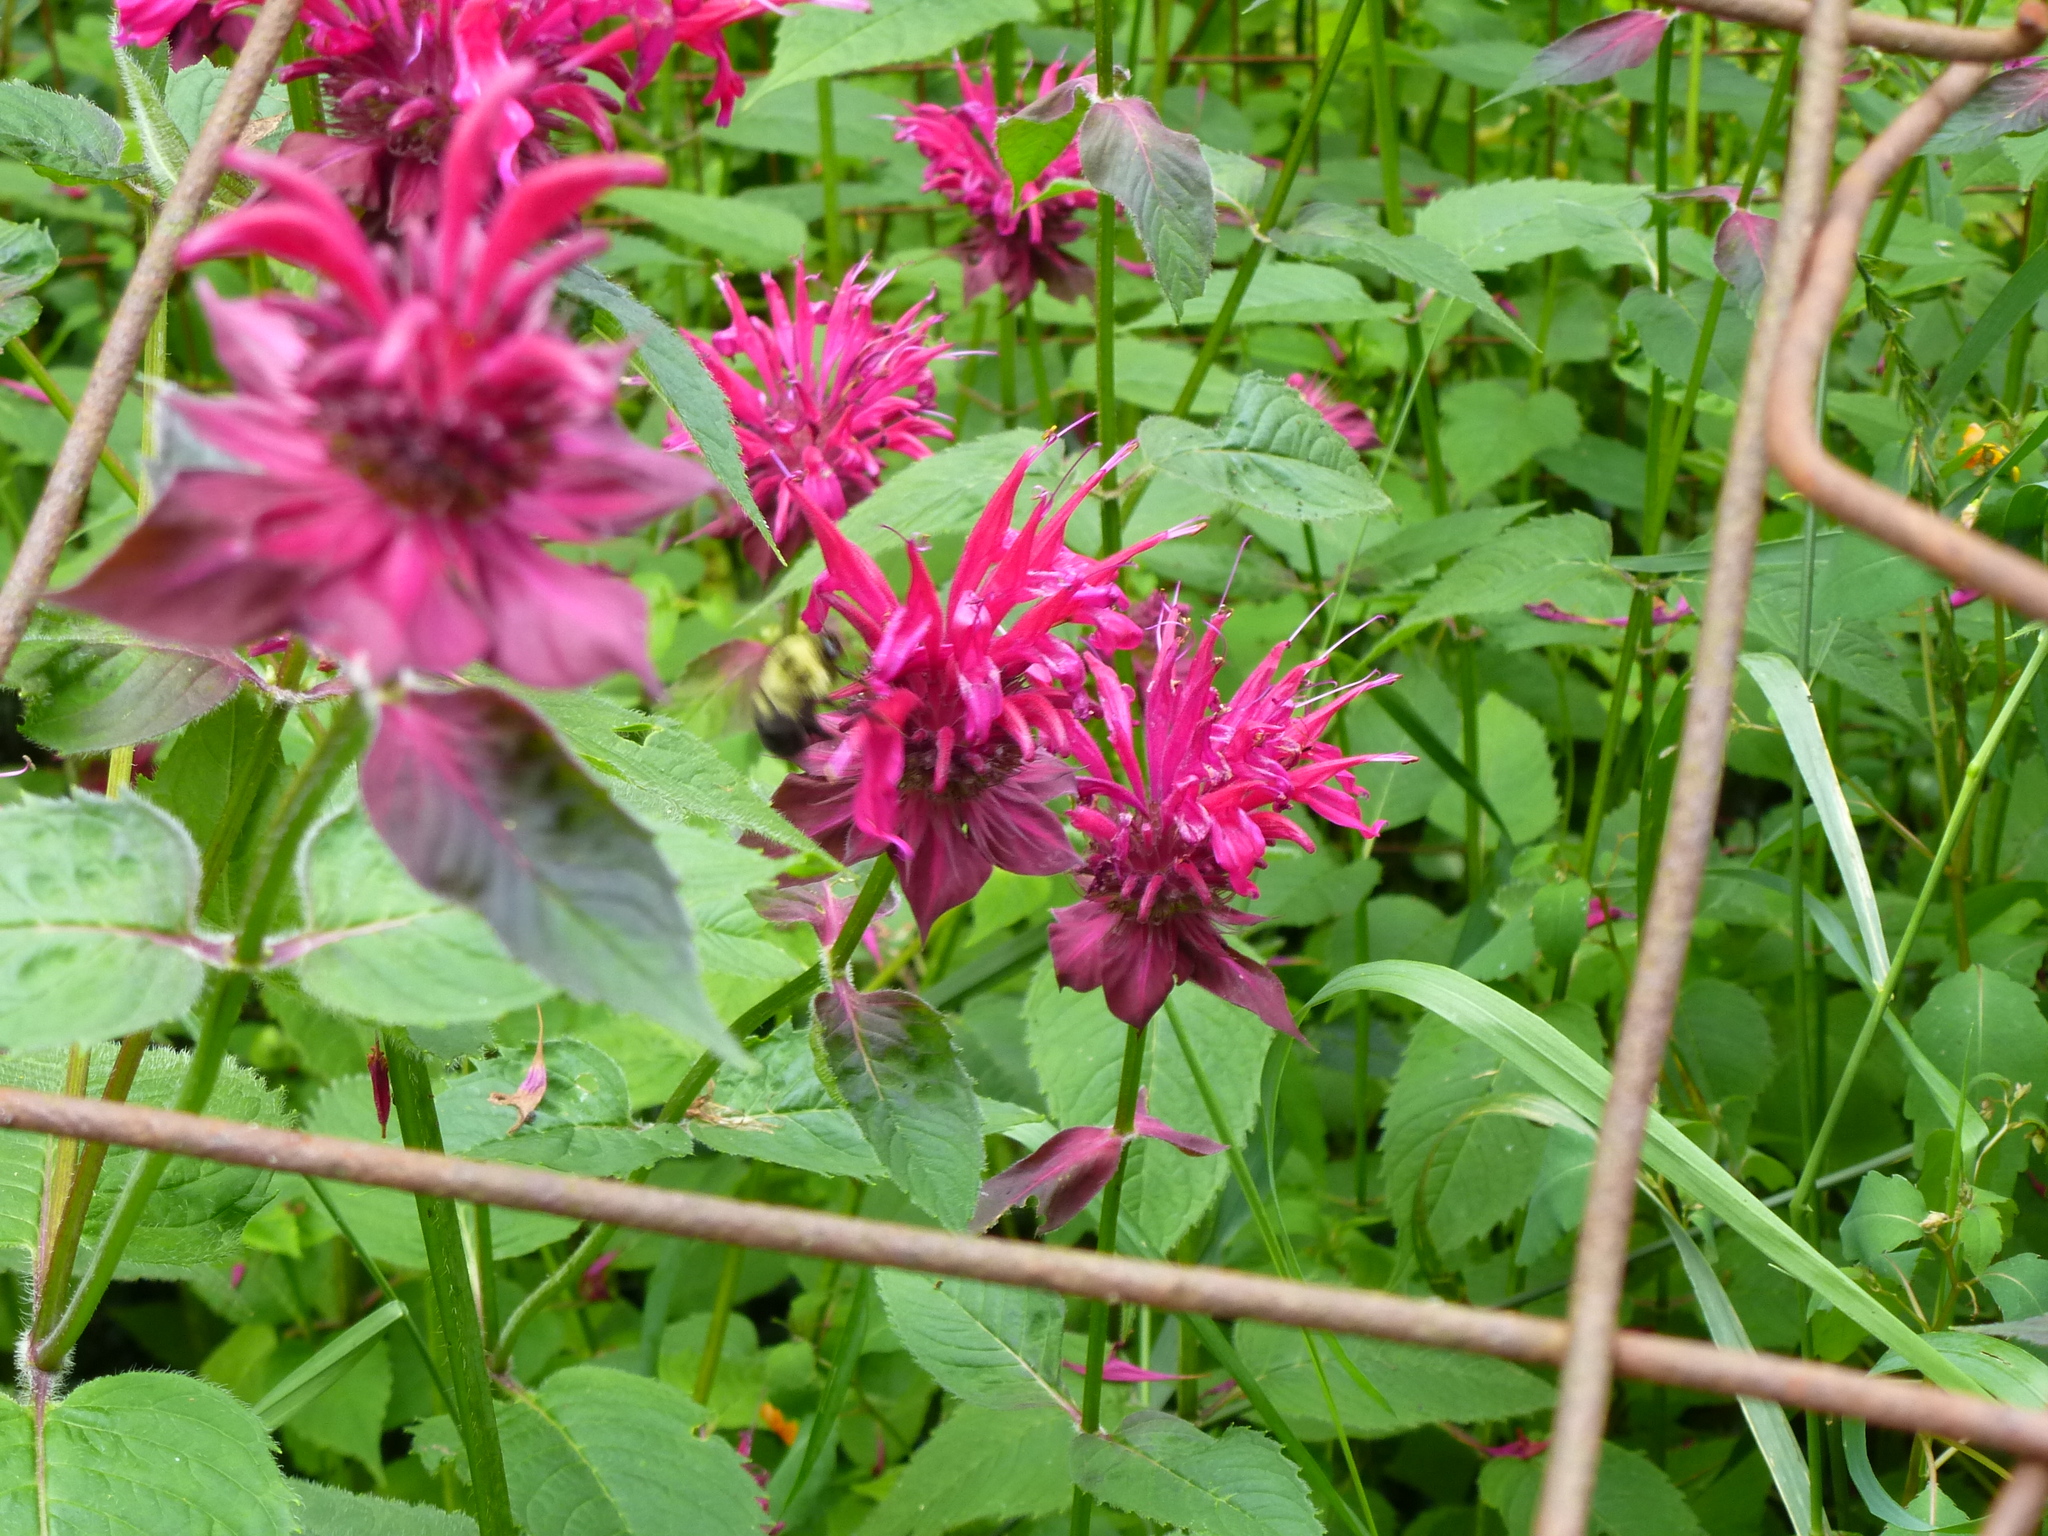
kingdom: Animalia
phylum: Arthropoda
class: Insecta
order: Hymenoptera
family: Apidae
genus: Bombus
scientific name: Bombus bimaculatus
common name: Two-spotted bumble bee
